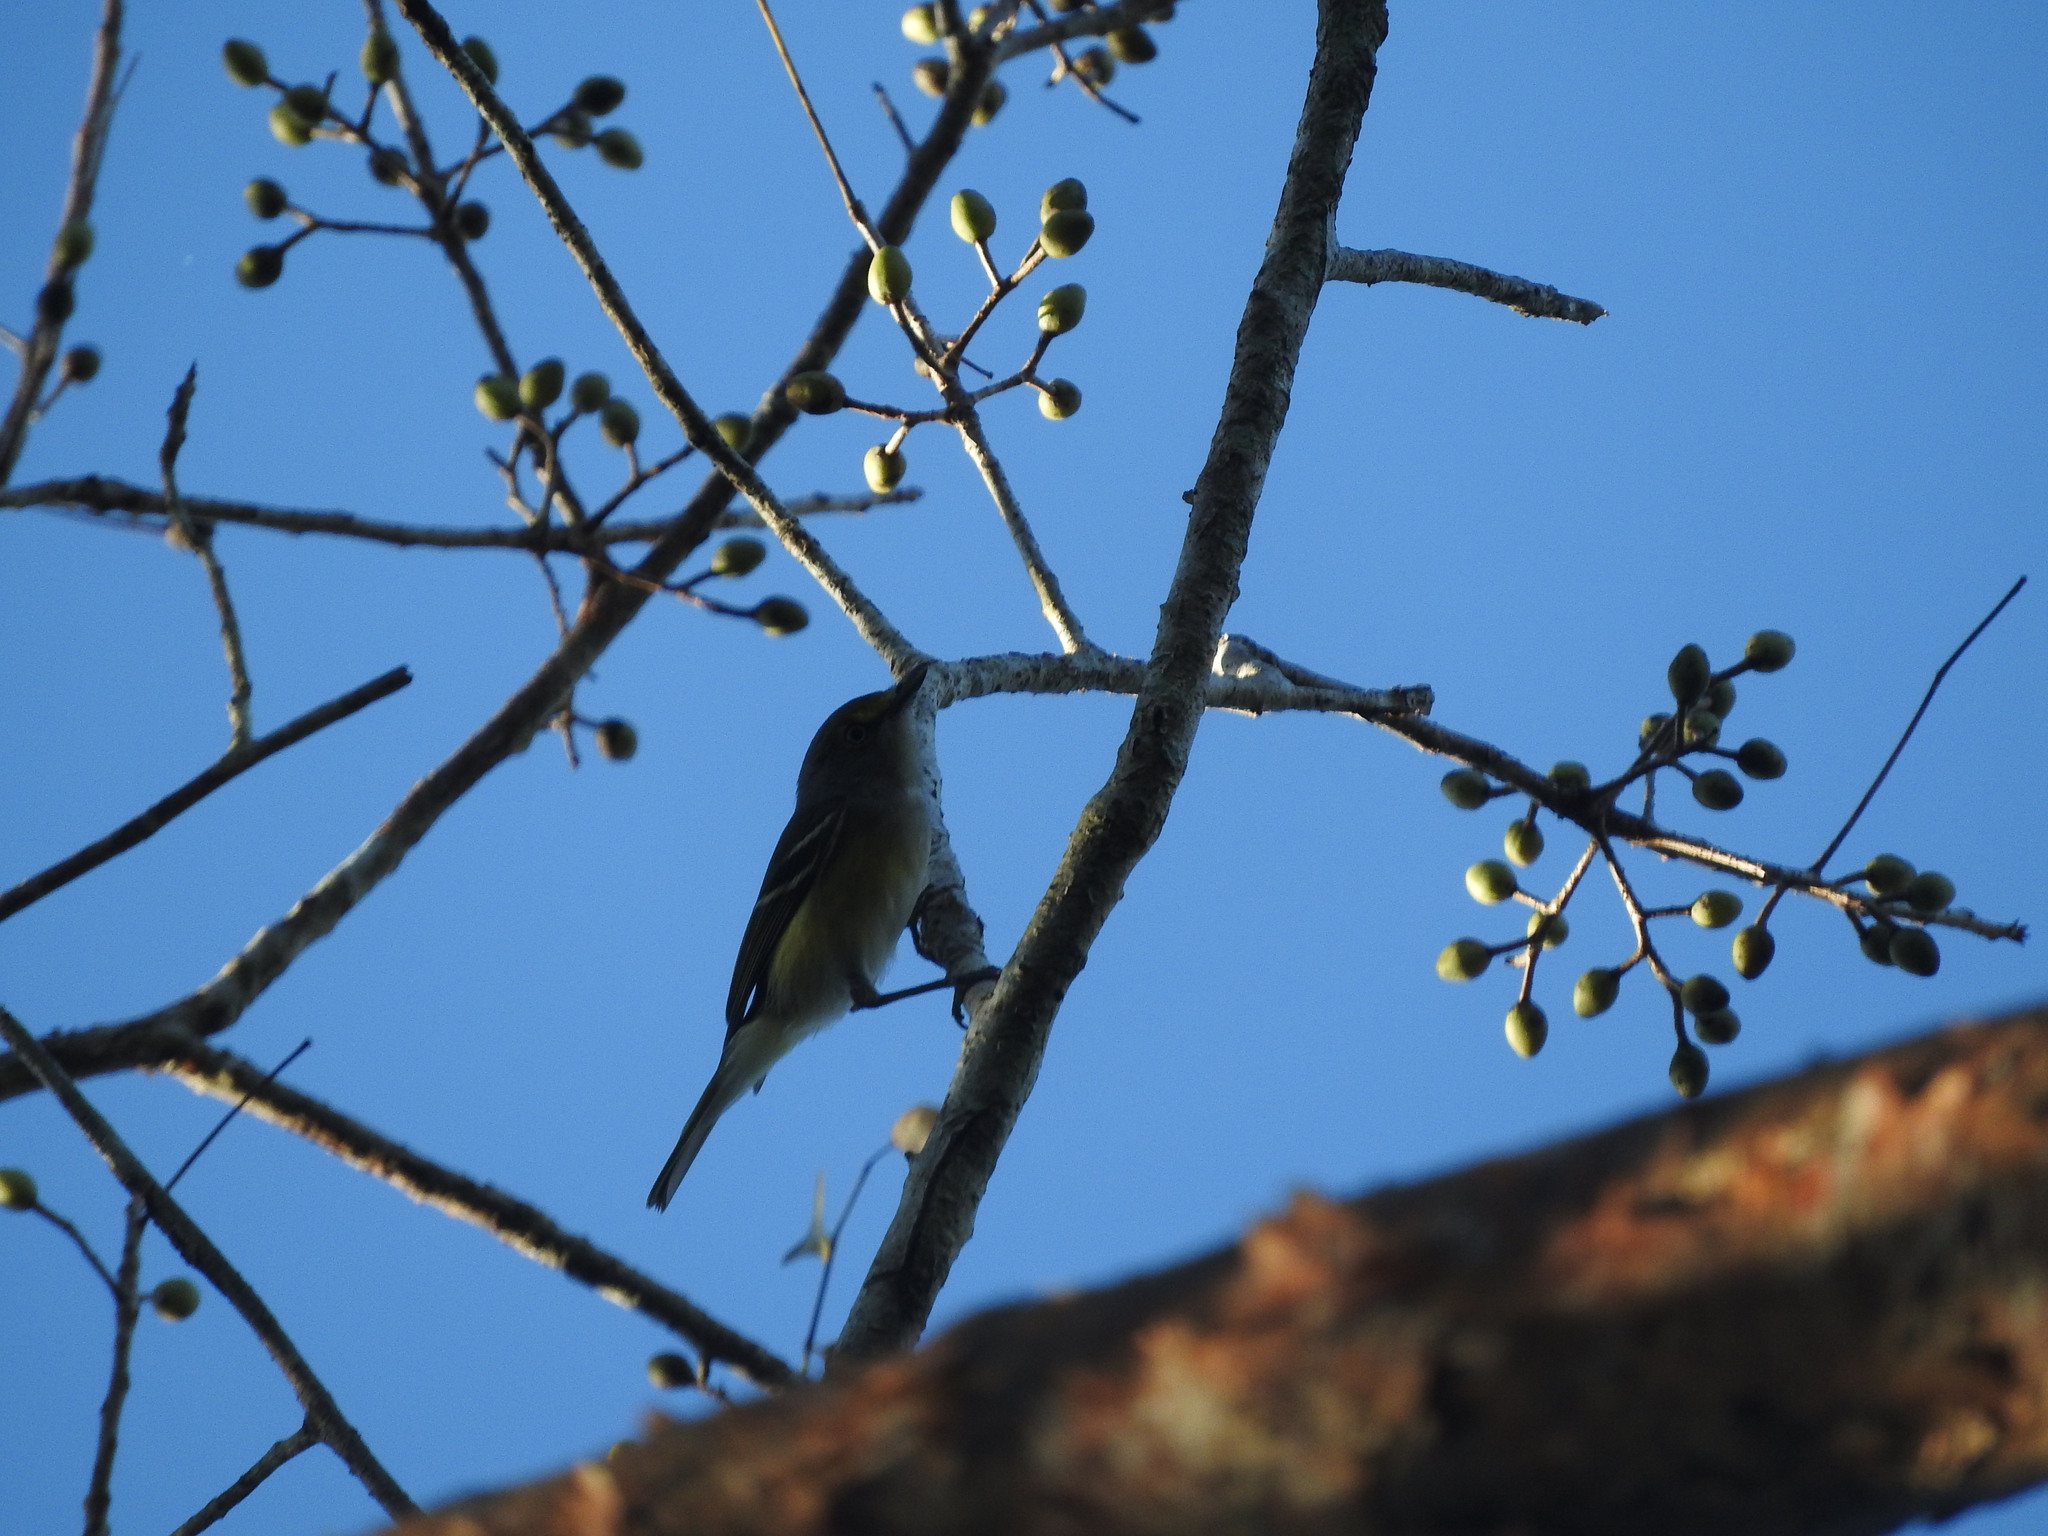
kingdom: Animalia
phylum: Chordata
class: Aves
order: Passeriformes
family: Vireonidae
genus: Vireo
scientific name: Vireo griseus
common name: White-eyed vireo
